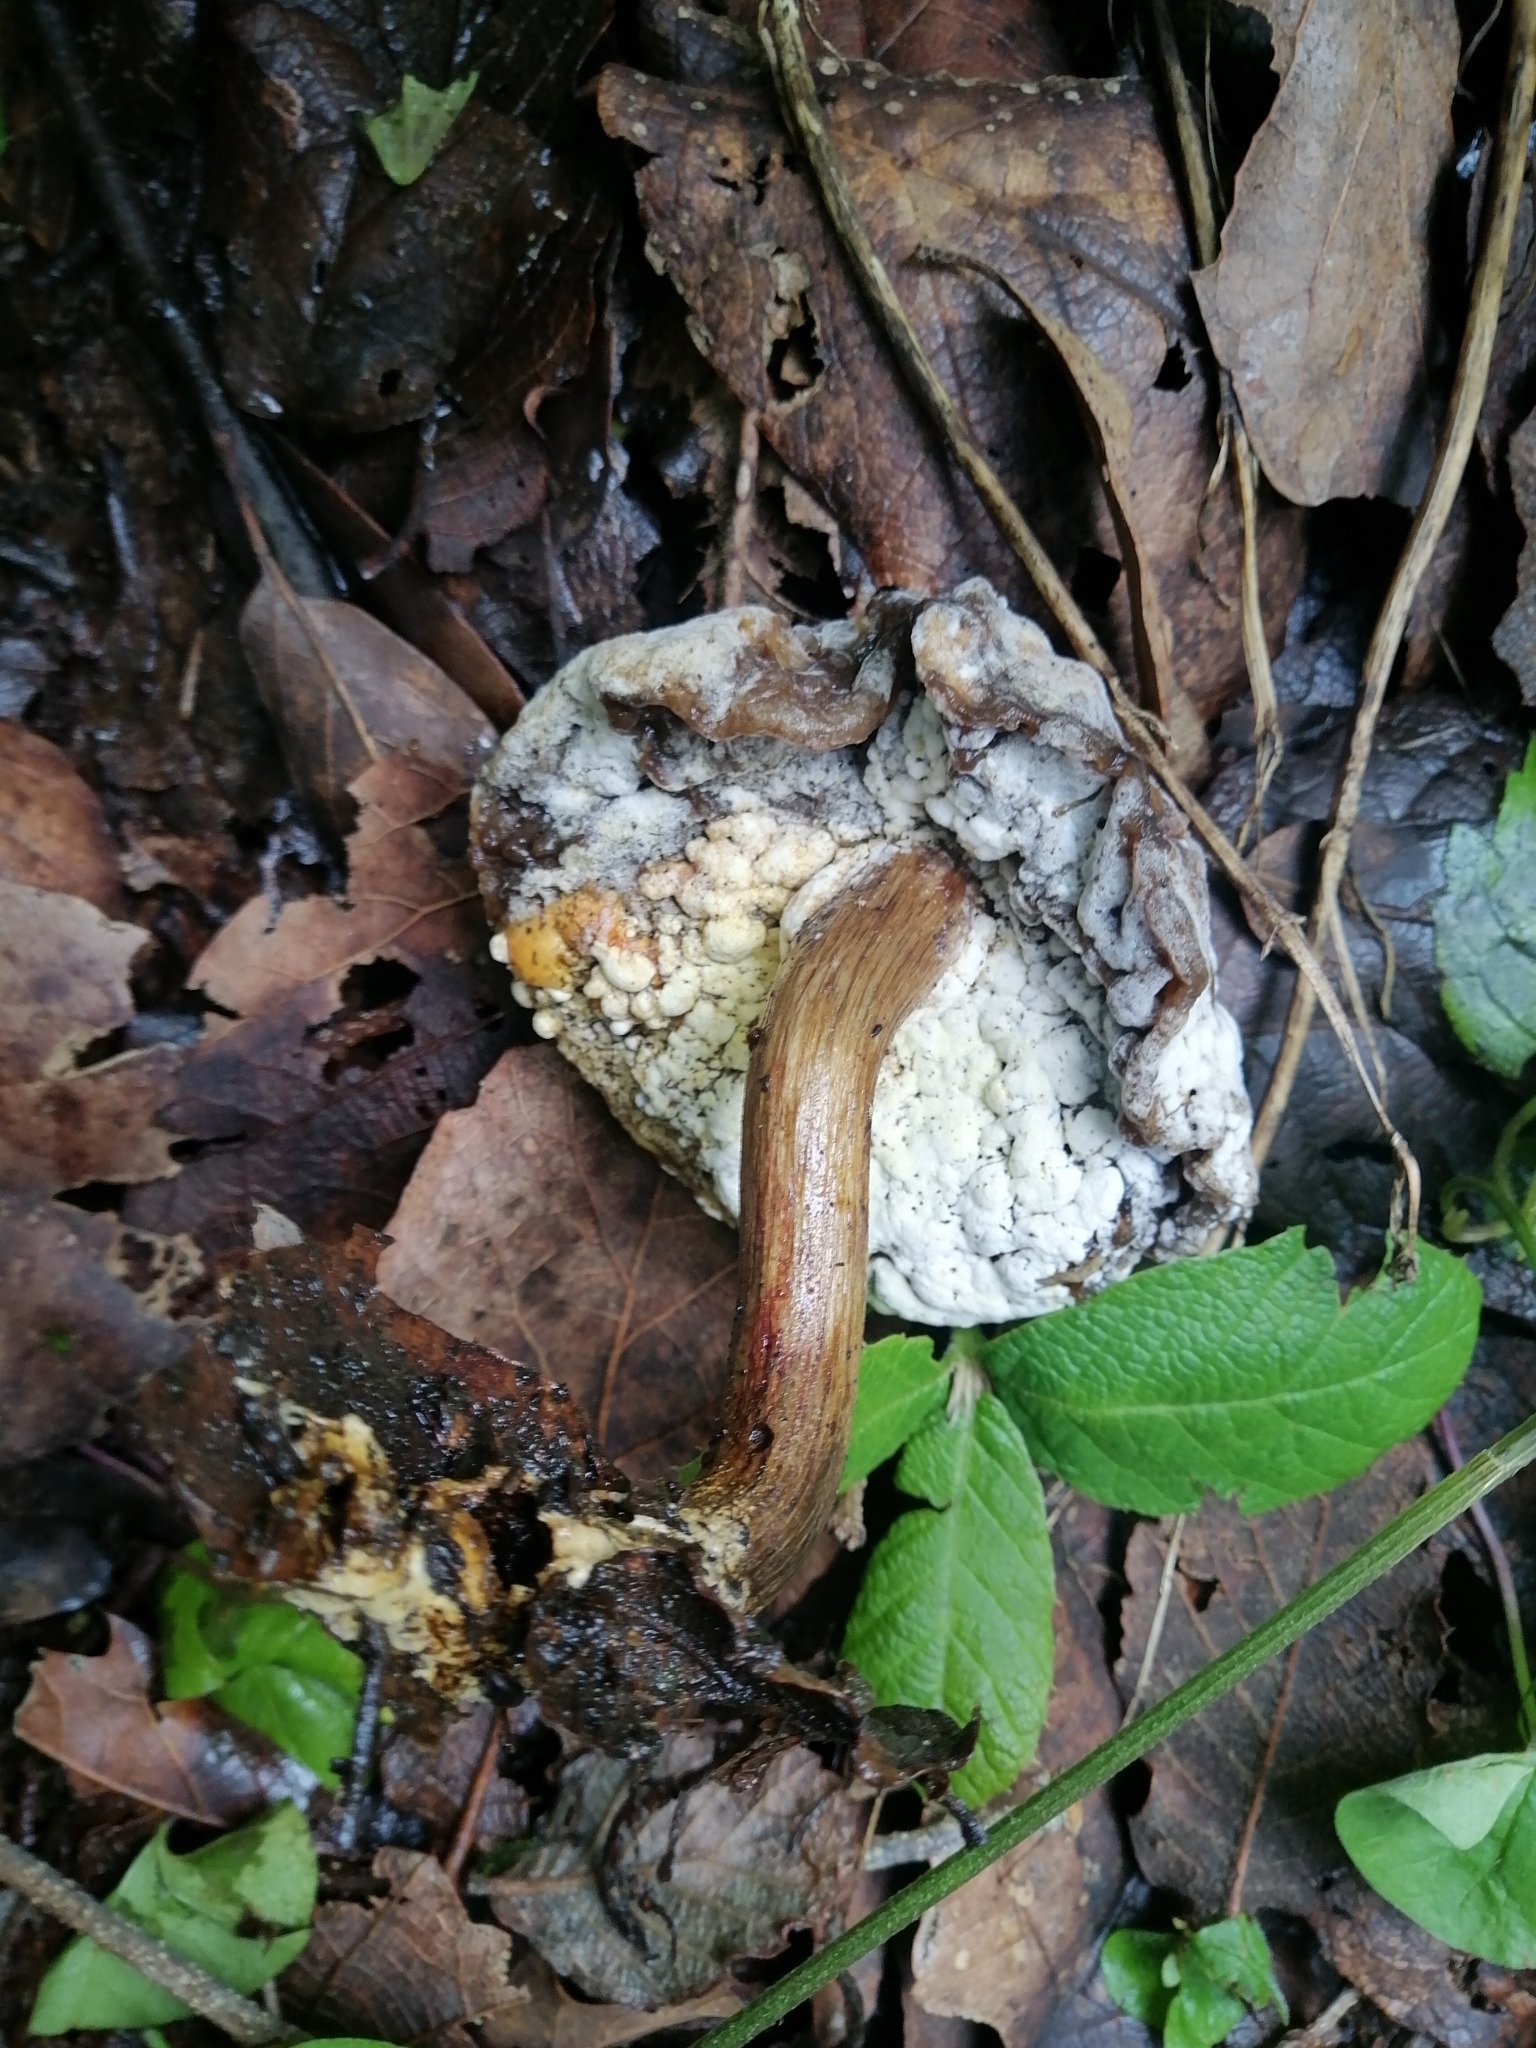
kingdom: Fungi
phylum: Ascomycota
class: Sordariomycetes
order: Hypocreales
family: Hypocreaceae
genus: Hypomyces
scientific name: Hypomyces chrysospermus
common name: Bolete mould
